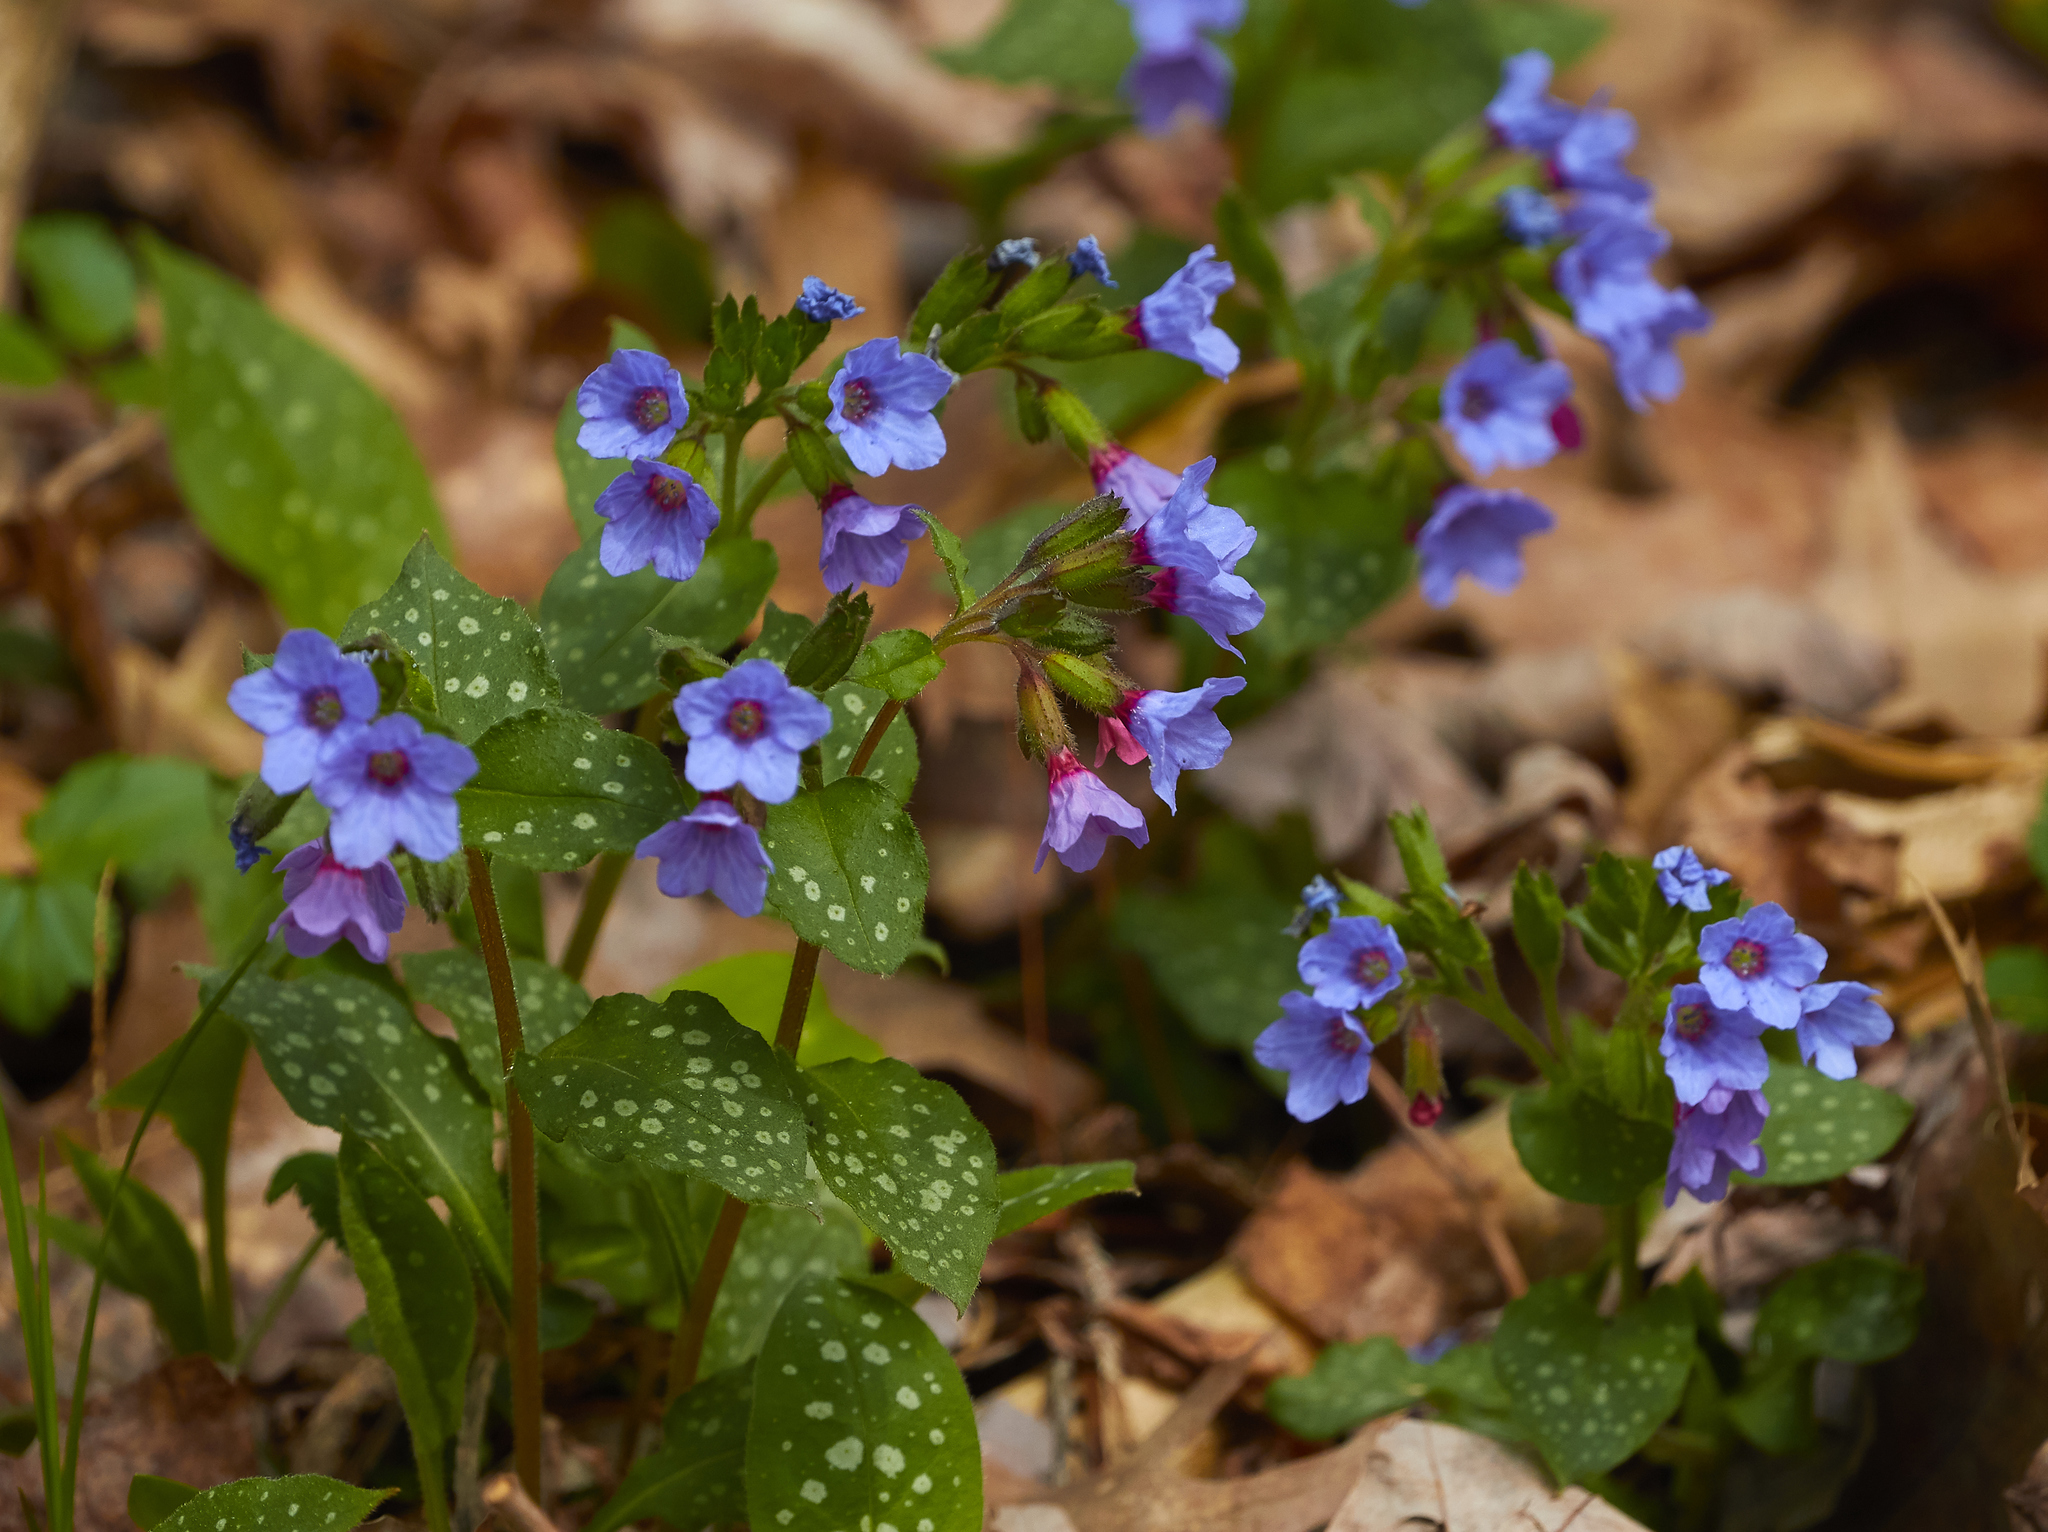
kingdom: Plantae
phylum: Tracheophyta
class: Magnoliopsida
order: Boraginales
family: Boraginaceae
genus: Pulmonaria
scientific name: Pulmonaria officinalis
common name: Lungwort
